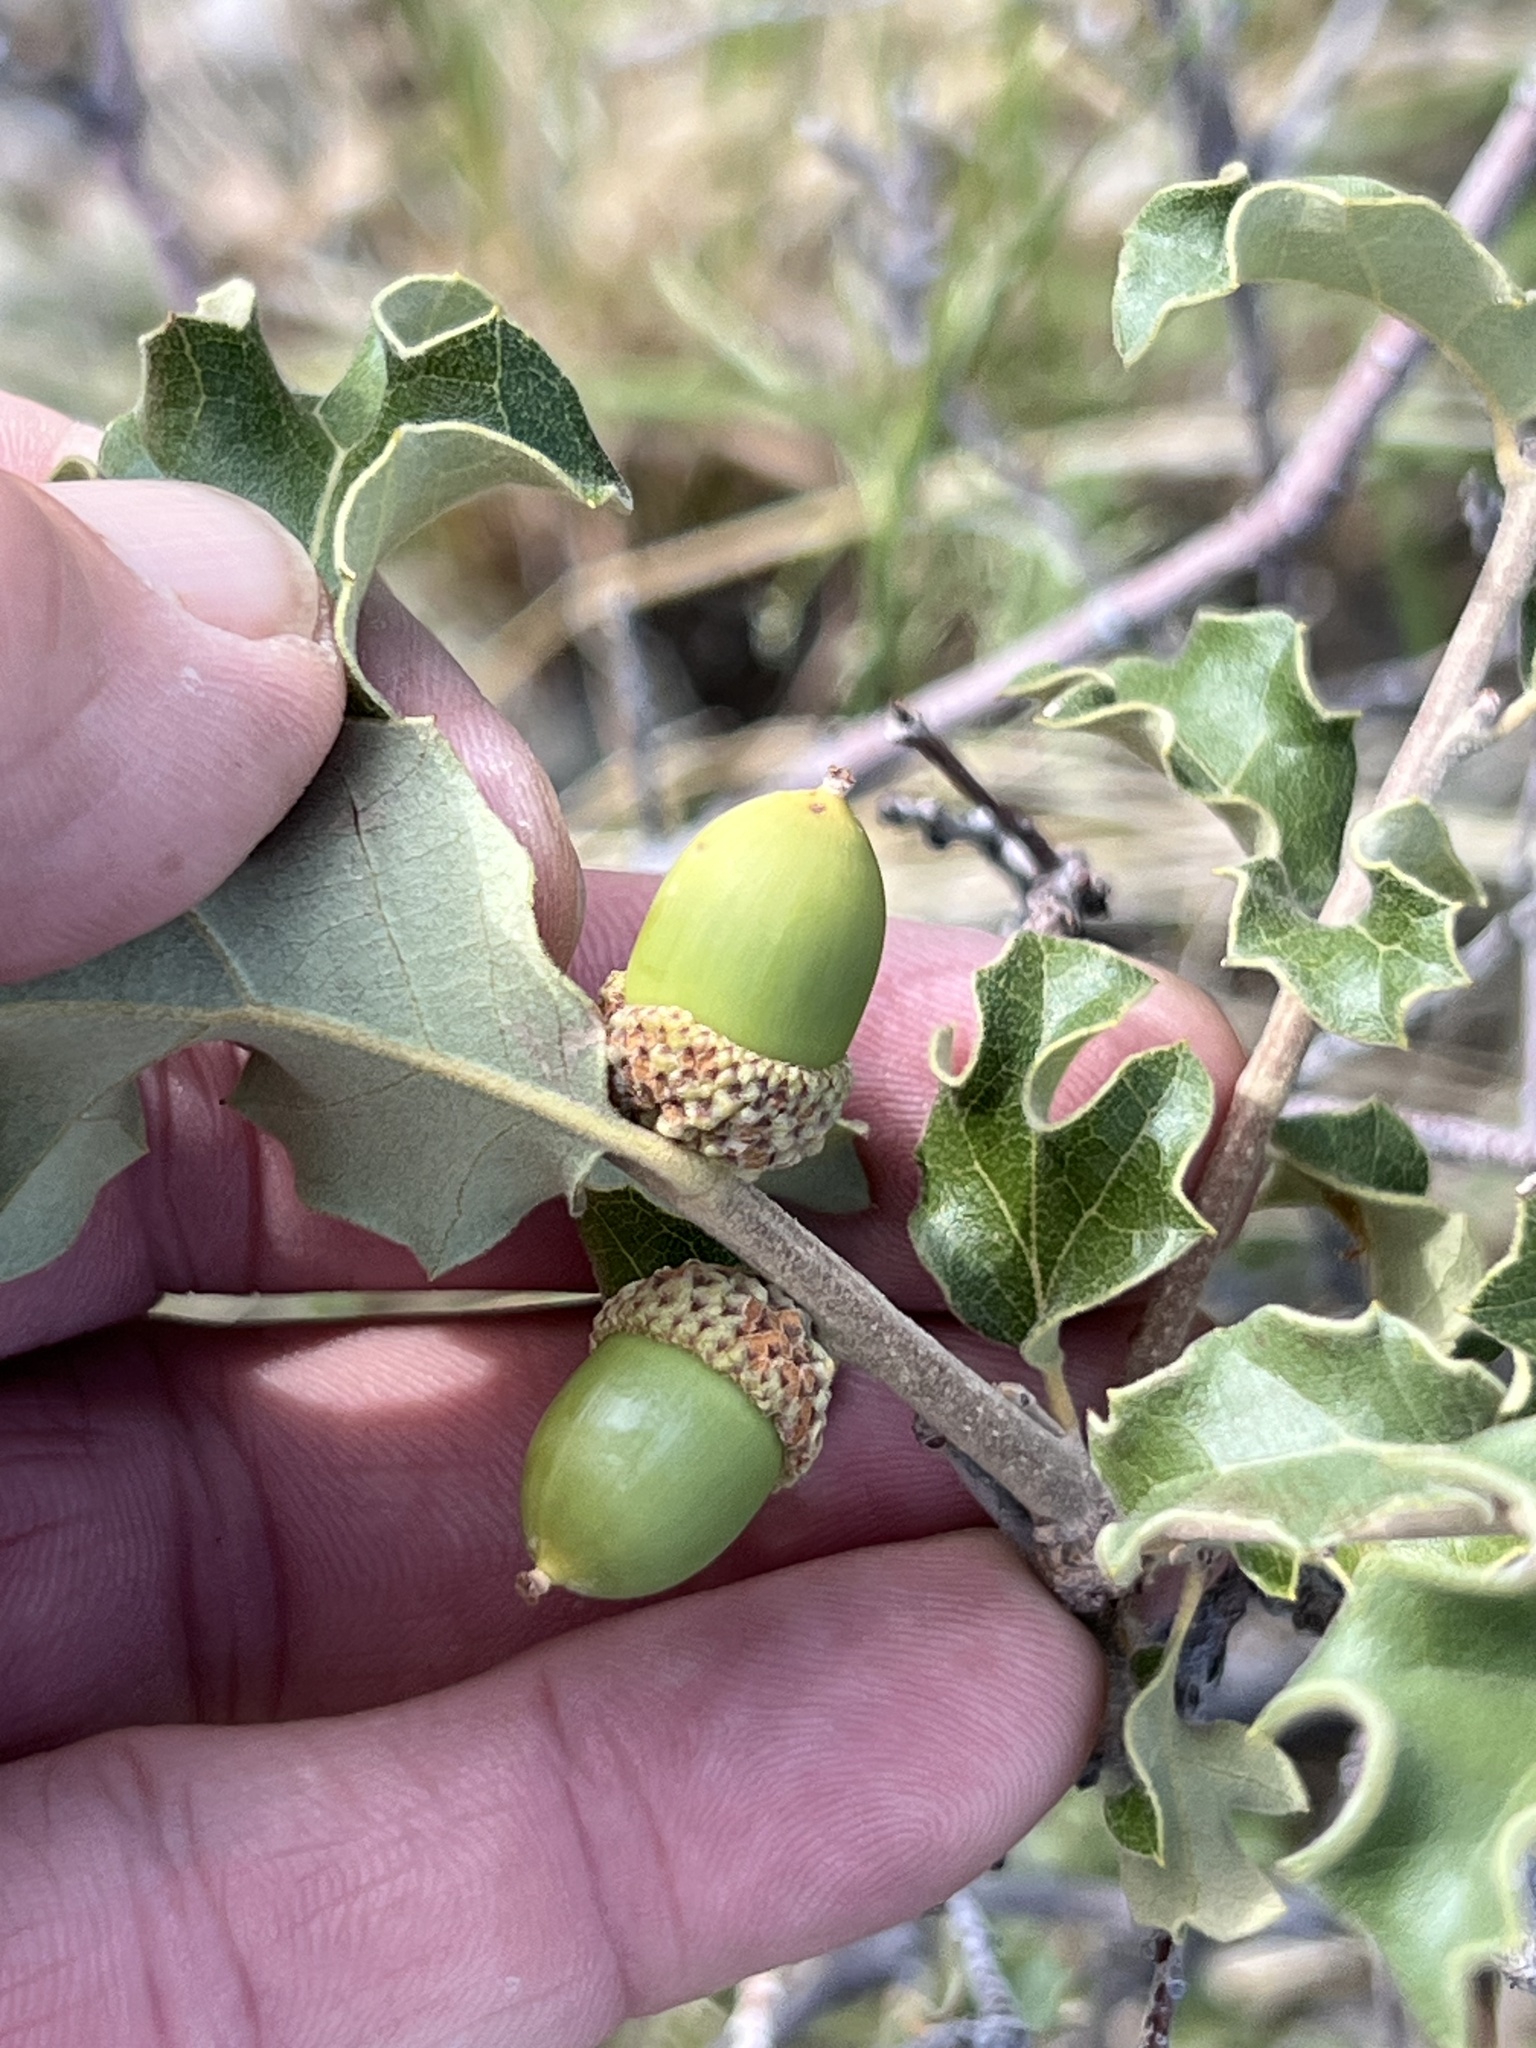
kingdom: Plantae
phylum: Tracheophyta
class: Magnoliopsida
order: Fagales
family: Fagaceae
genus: Quercus
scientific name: Quercus pungens
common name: Pungent oak
